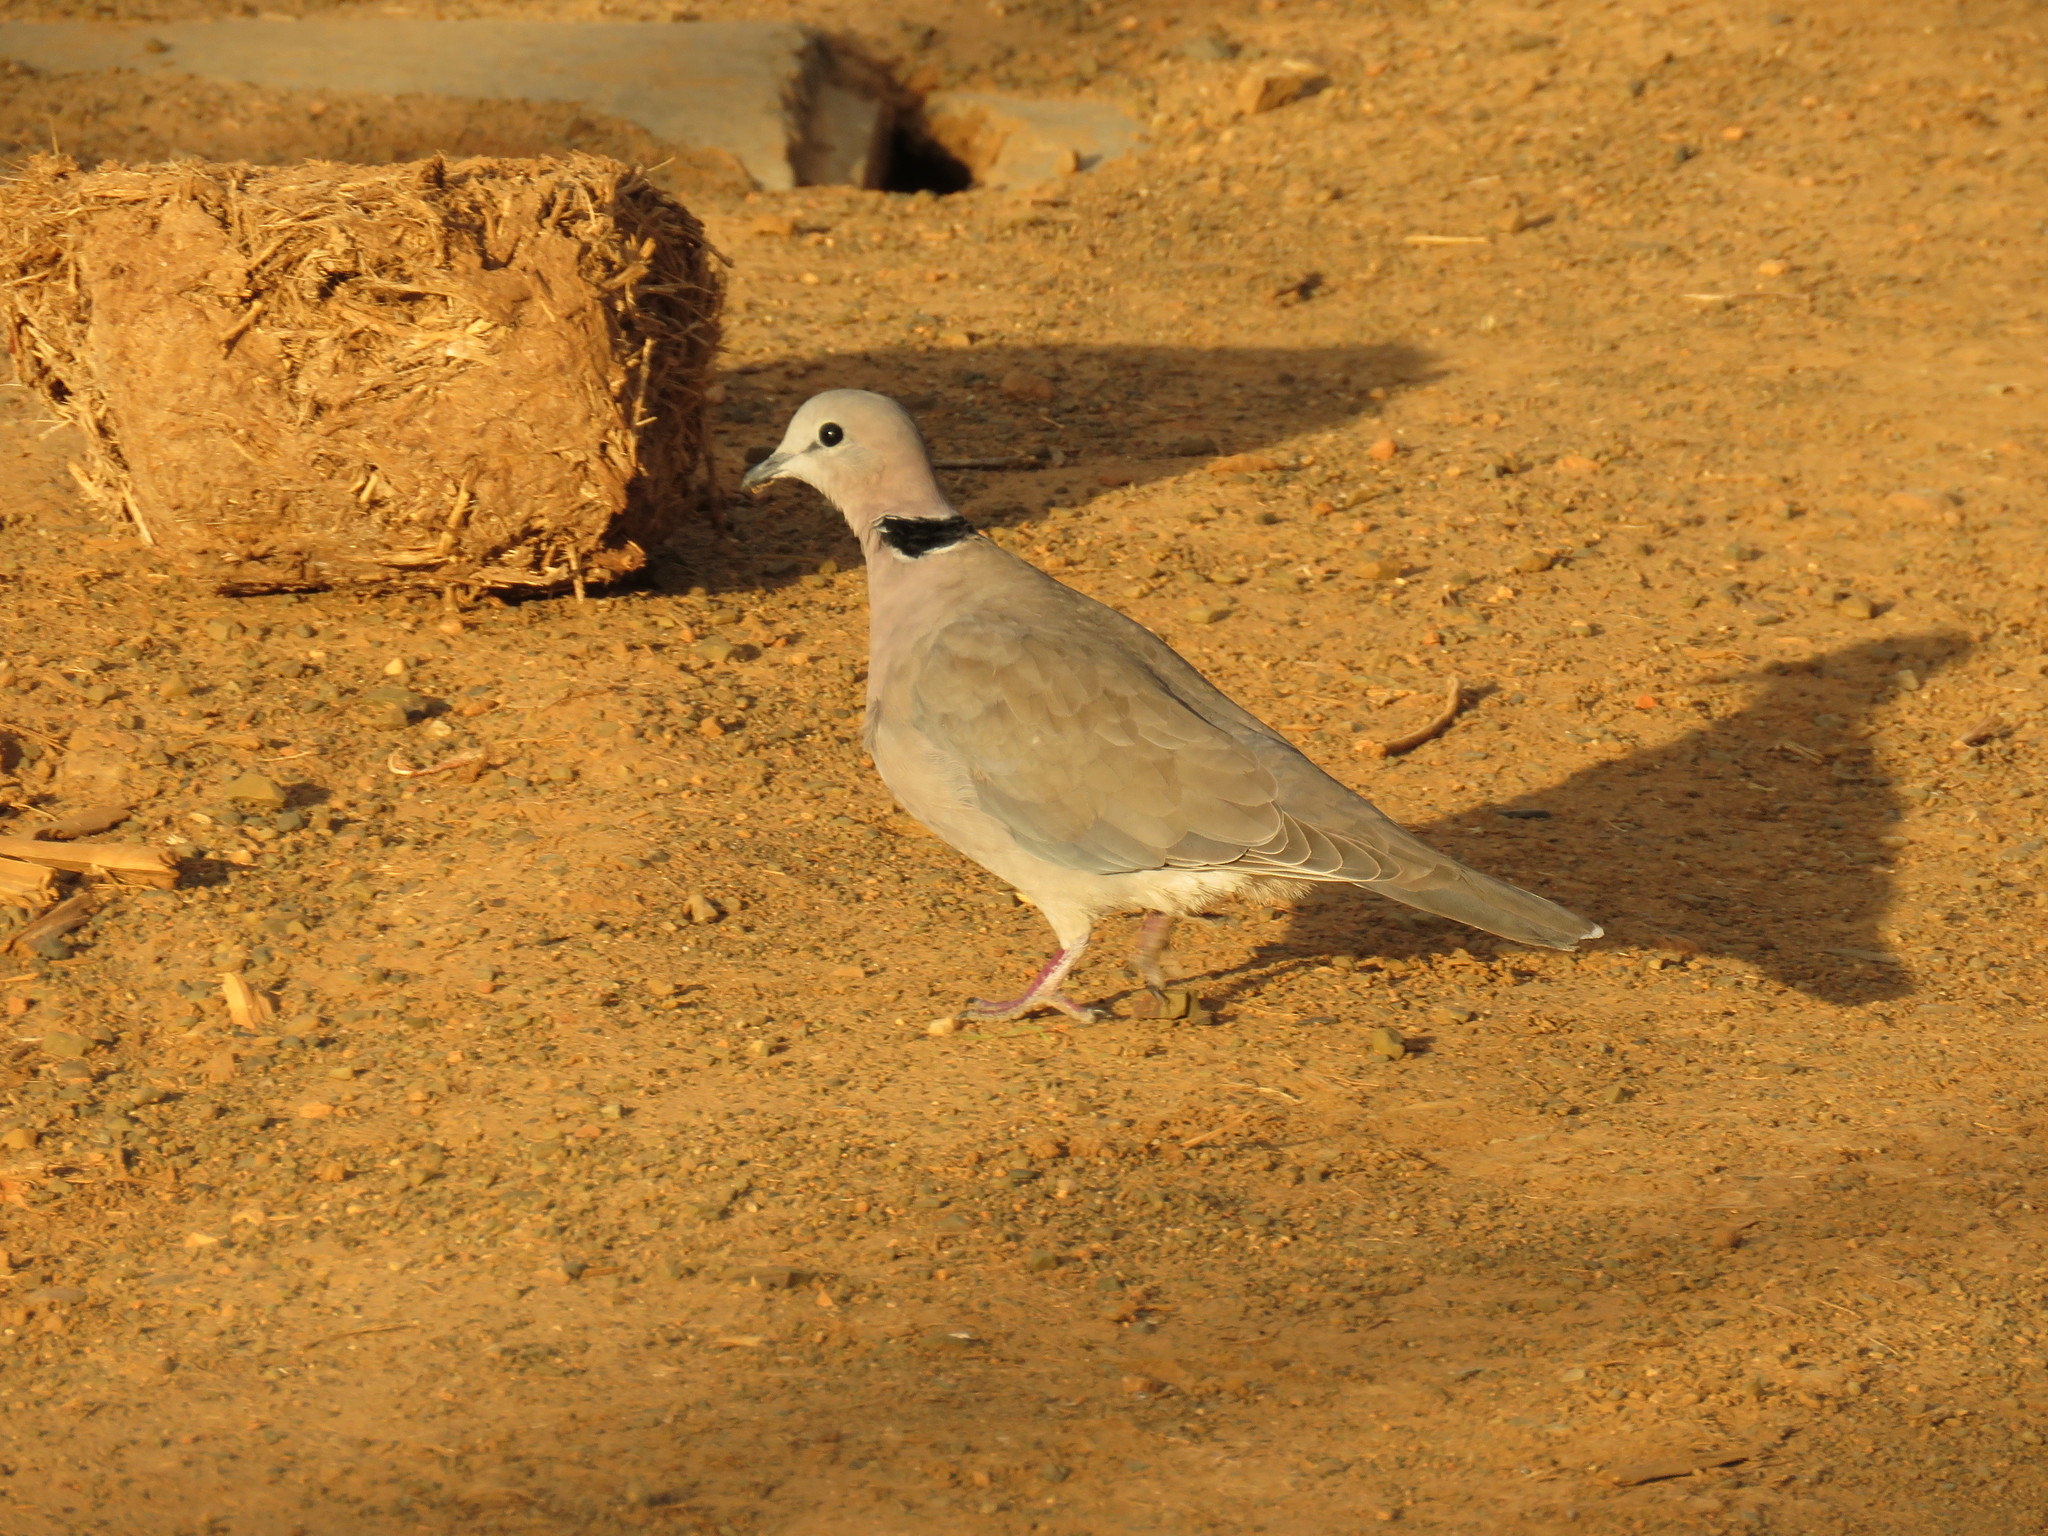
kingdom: Animalia
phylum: Chordata
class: Aves
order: Columbiformes
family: Columbidae
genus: Streptopelia
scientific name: Streptopelia capicola
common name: Ring-necked dove
